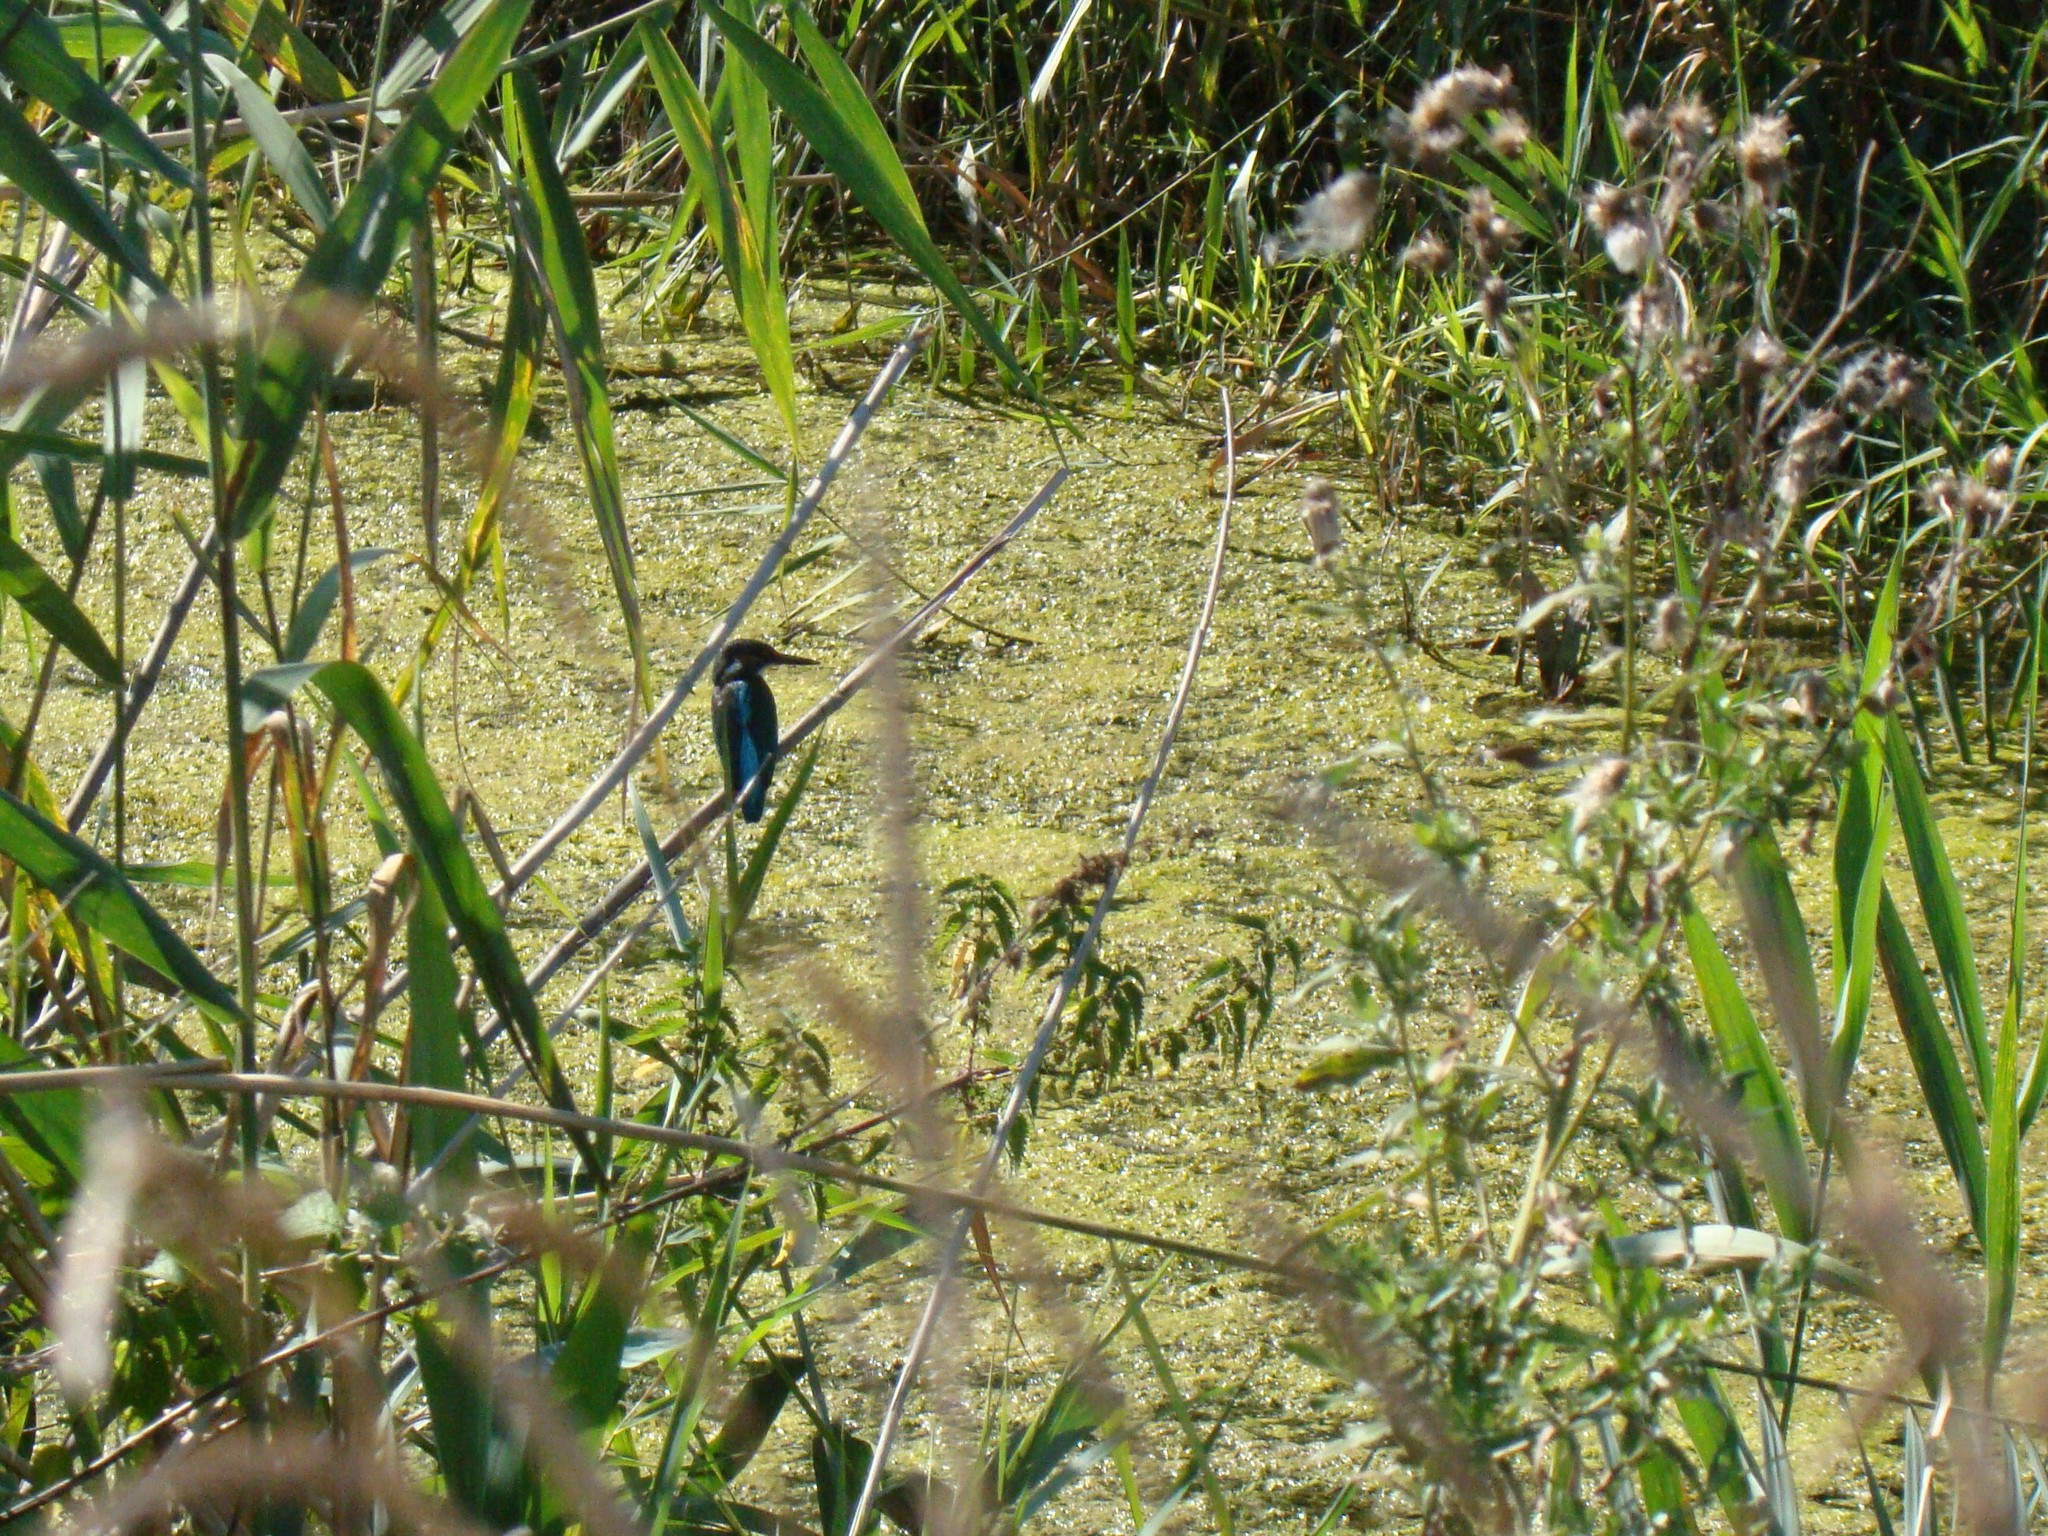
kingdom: Animalia
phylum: Chordata
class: Aves
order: Coraciiformes
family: Alcedinidae
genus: Alcedo
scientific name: Alcedo atthis
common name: Common kingfisher
